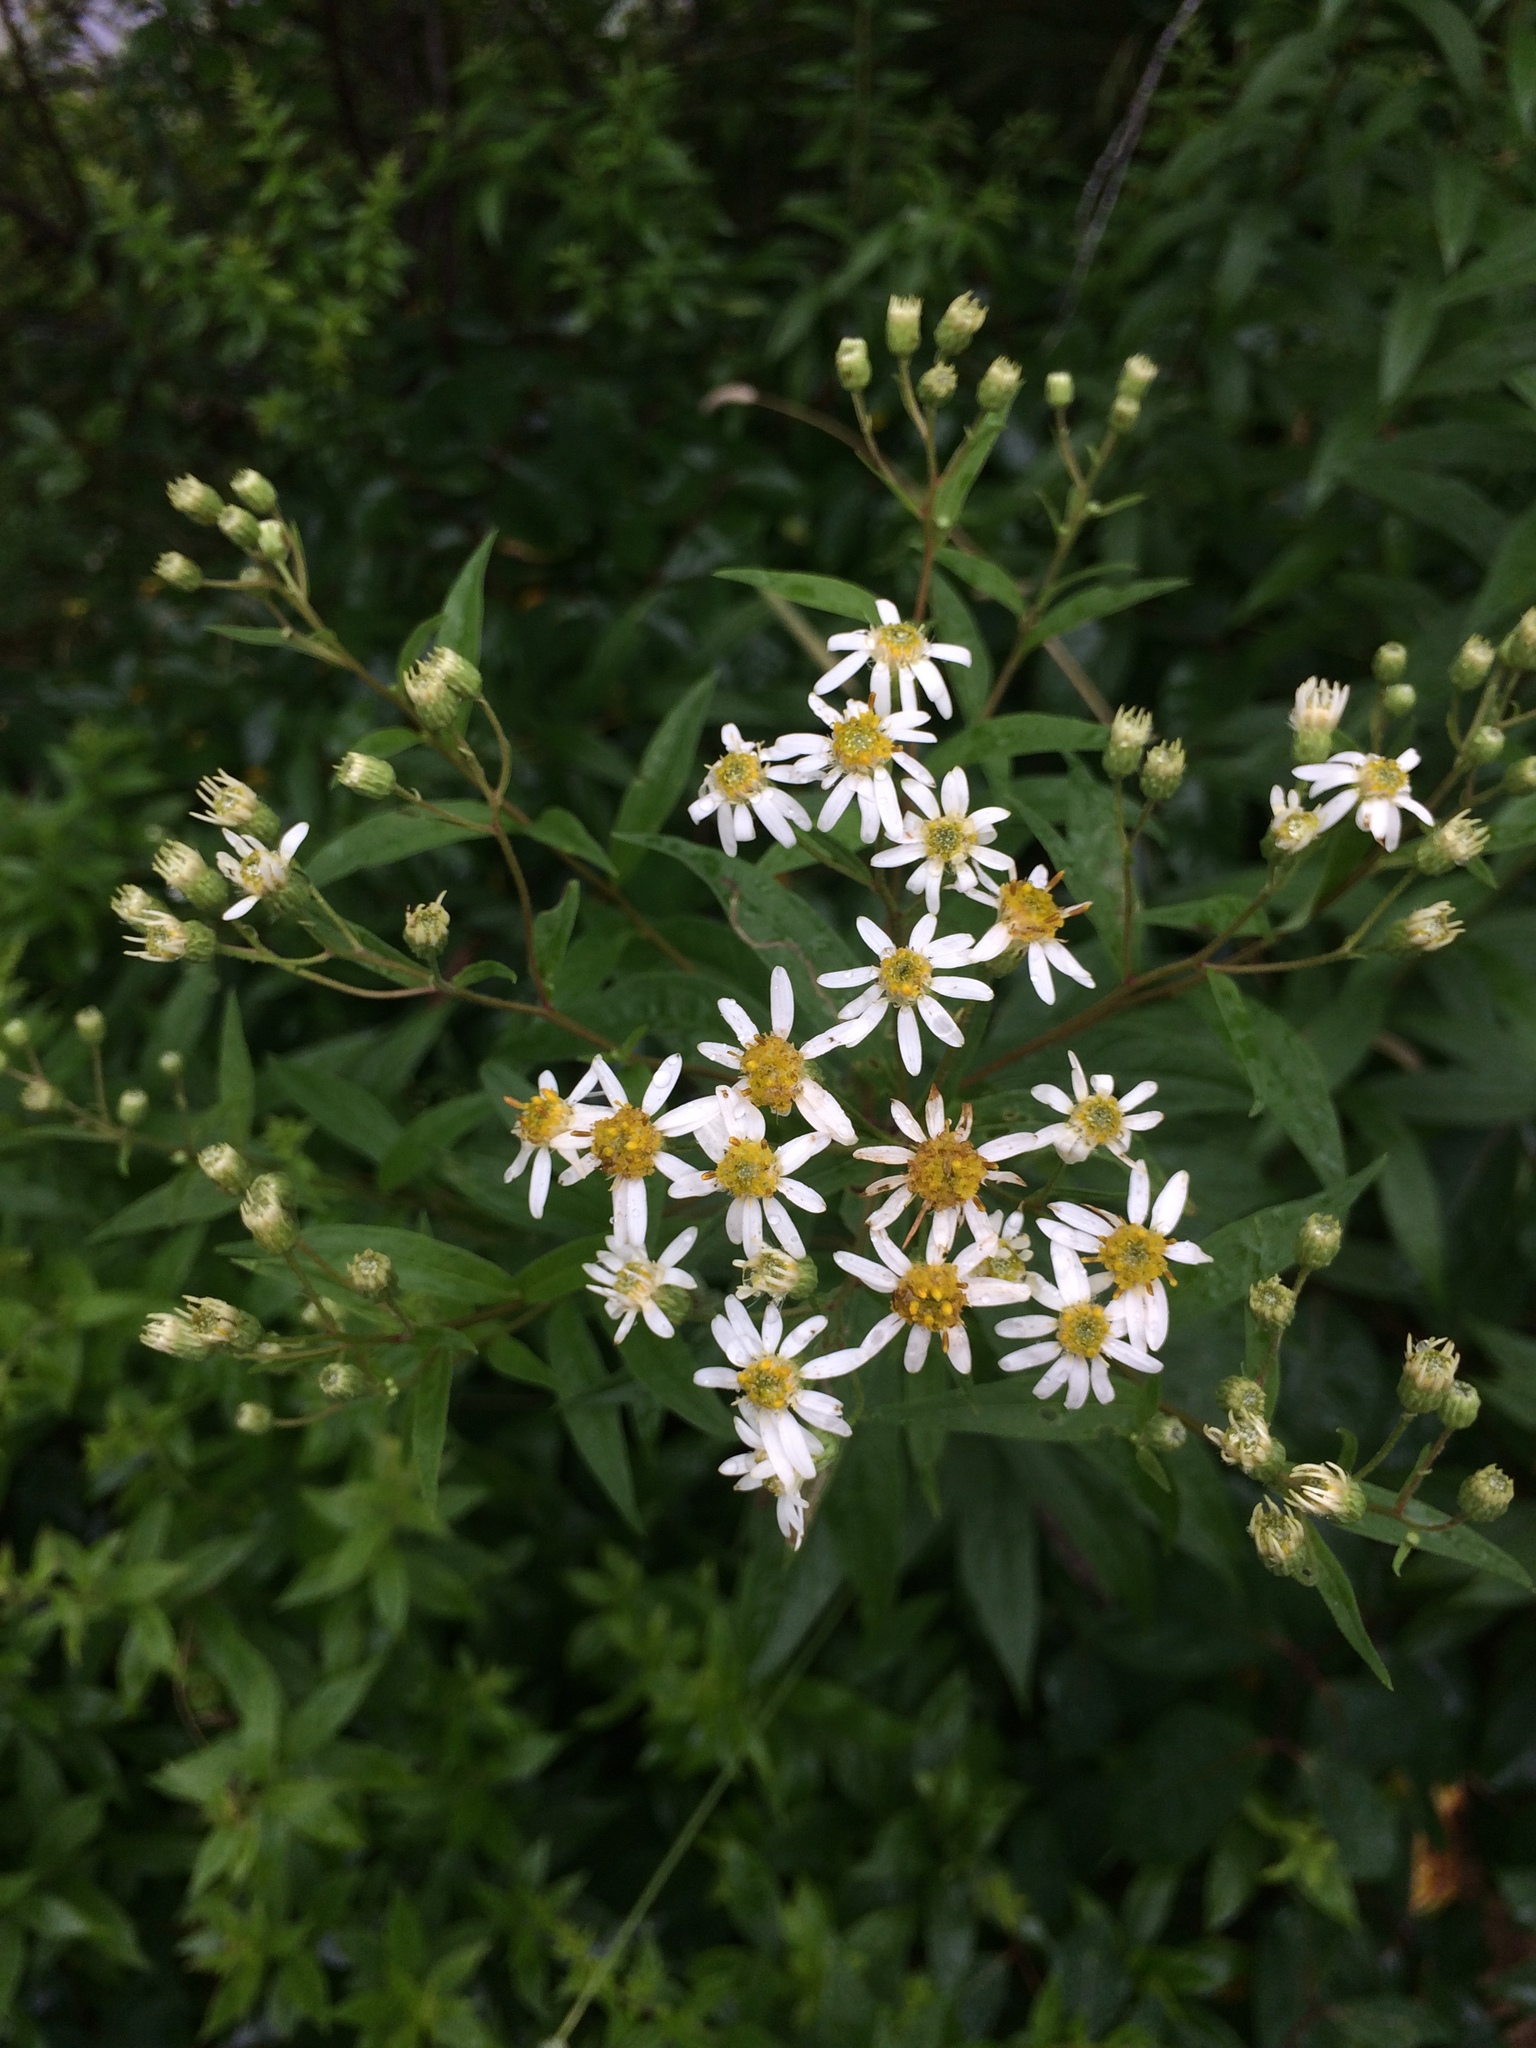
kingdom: Plantae
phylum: Tracheophyta
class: Magnoliopsida
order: Asterales
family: Asteraceae
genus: Doellingeria
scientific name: Doellingeria umbellata
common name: Flat-top white aster
